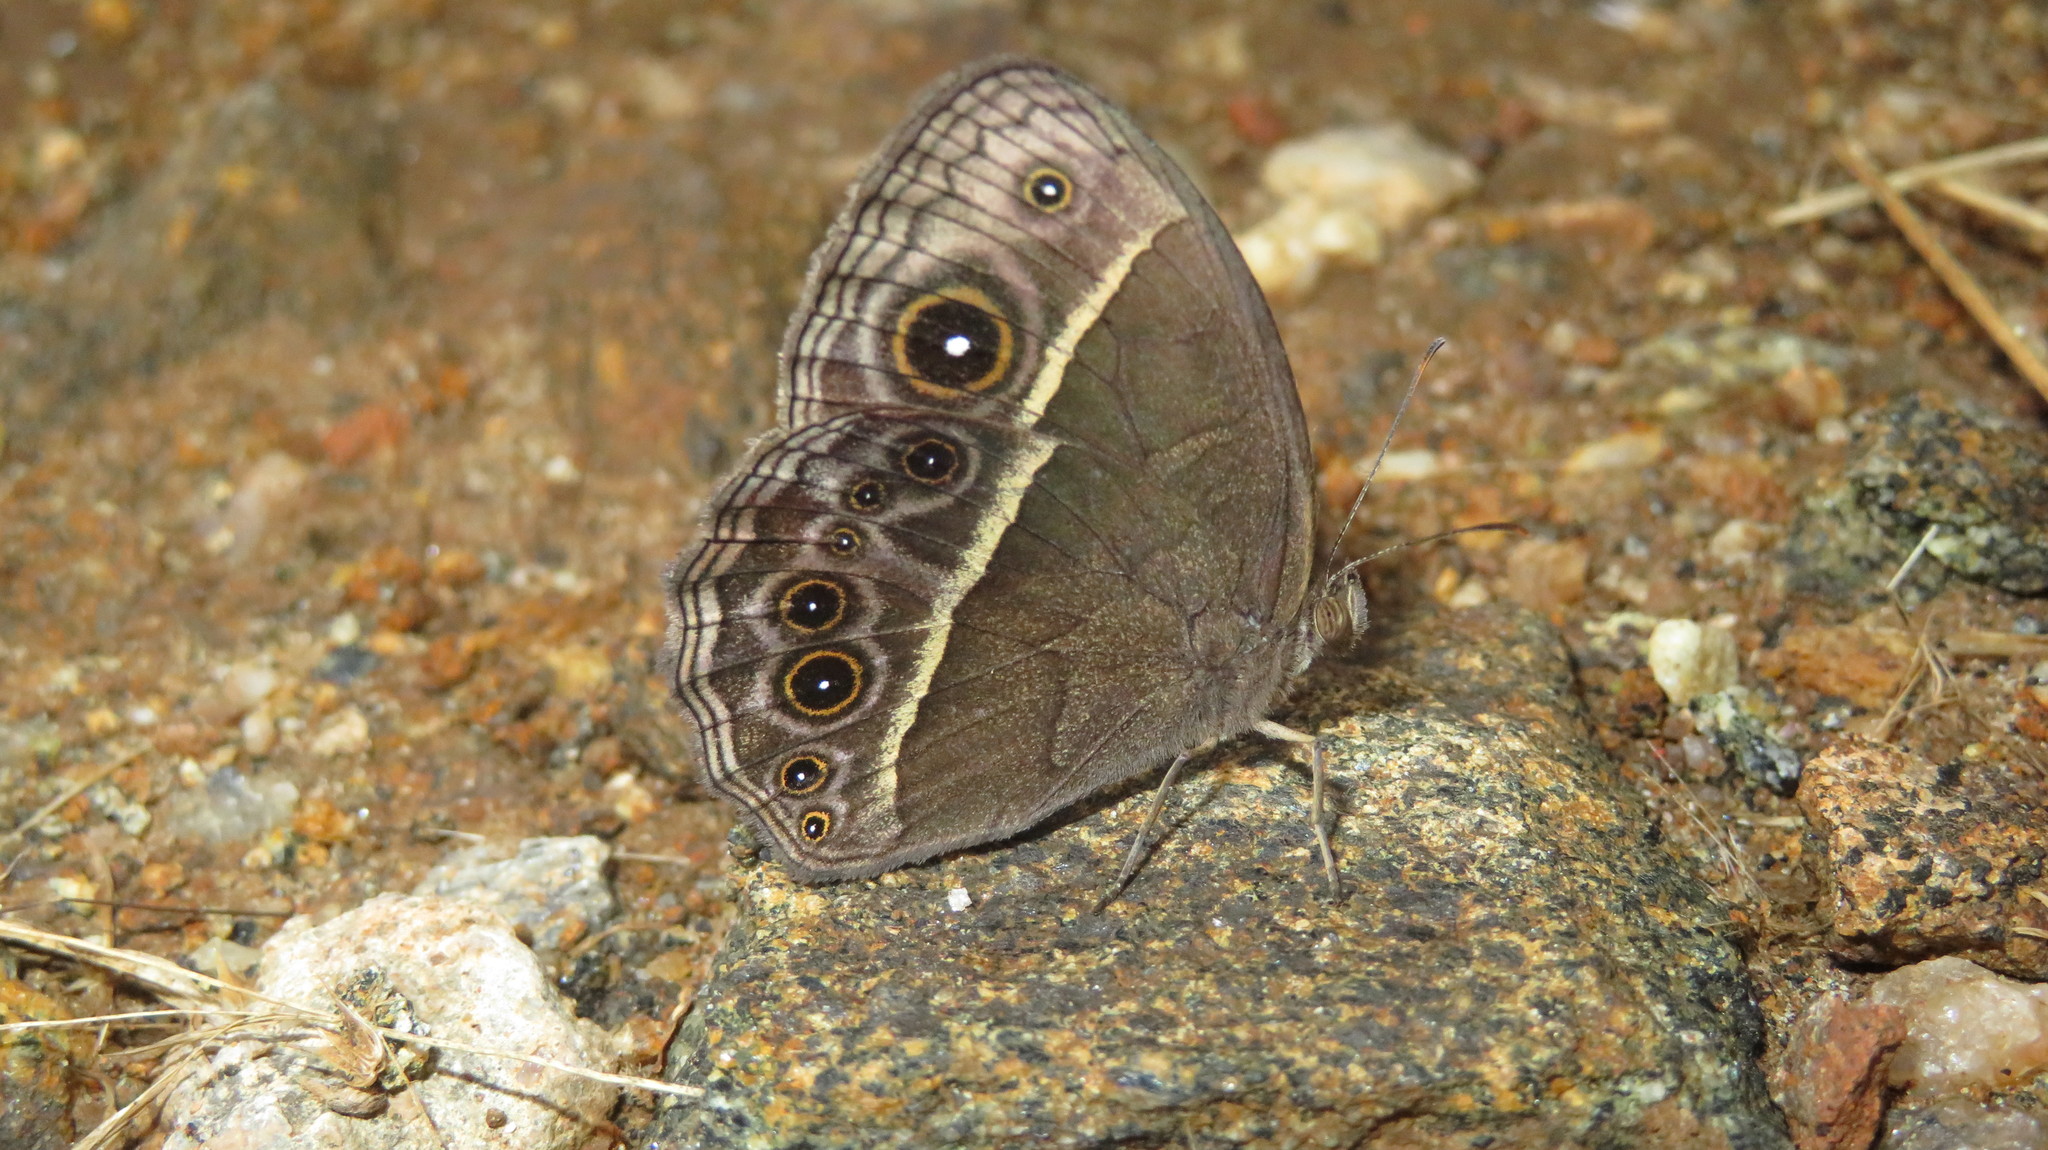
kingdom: Animalia
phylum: Arthropoda
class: Insecta
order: Lepidoptera
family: Nymphalidae
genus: Mycalesis
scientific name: Mycalesis rhacotis
